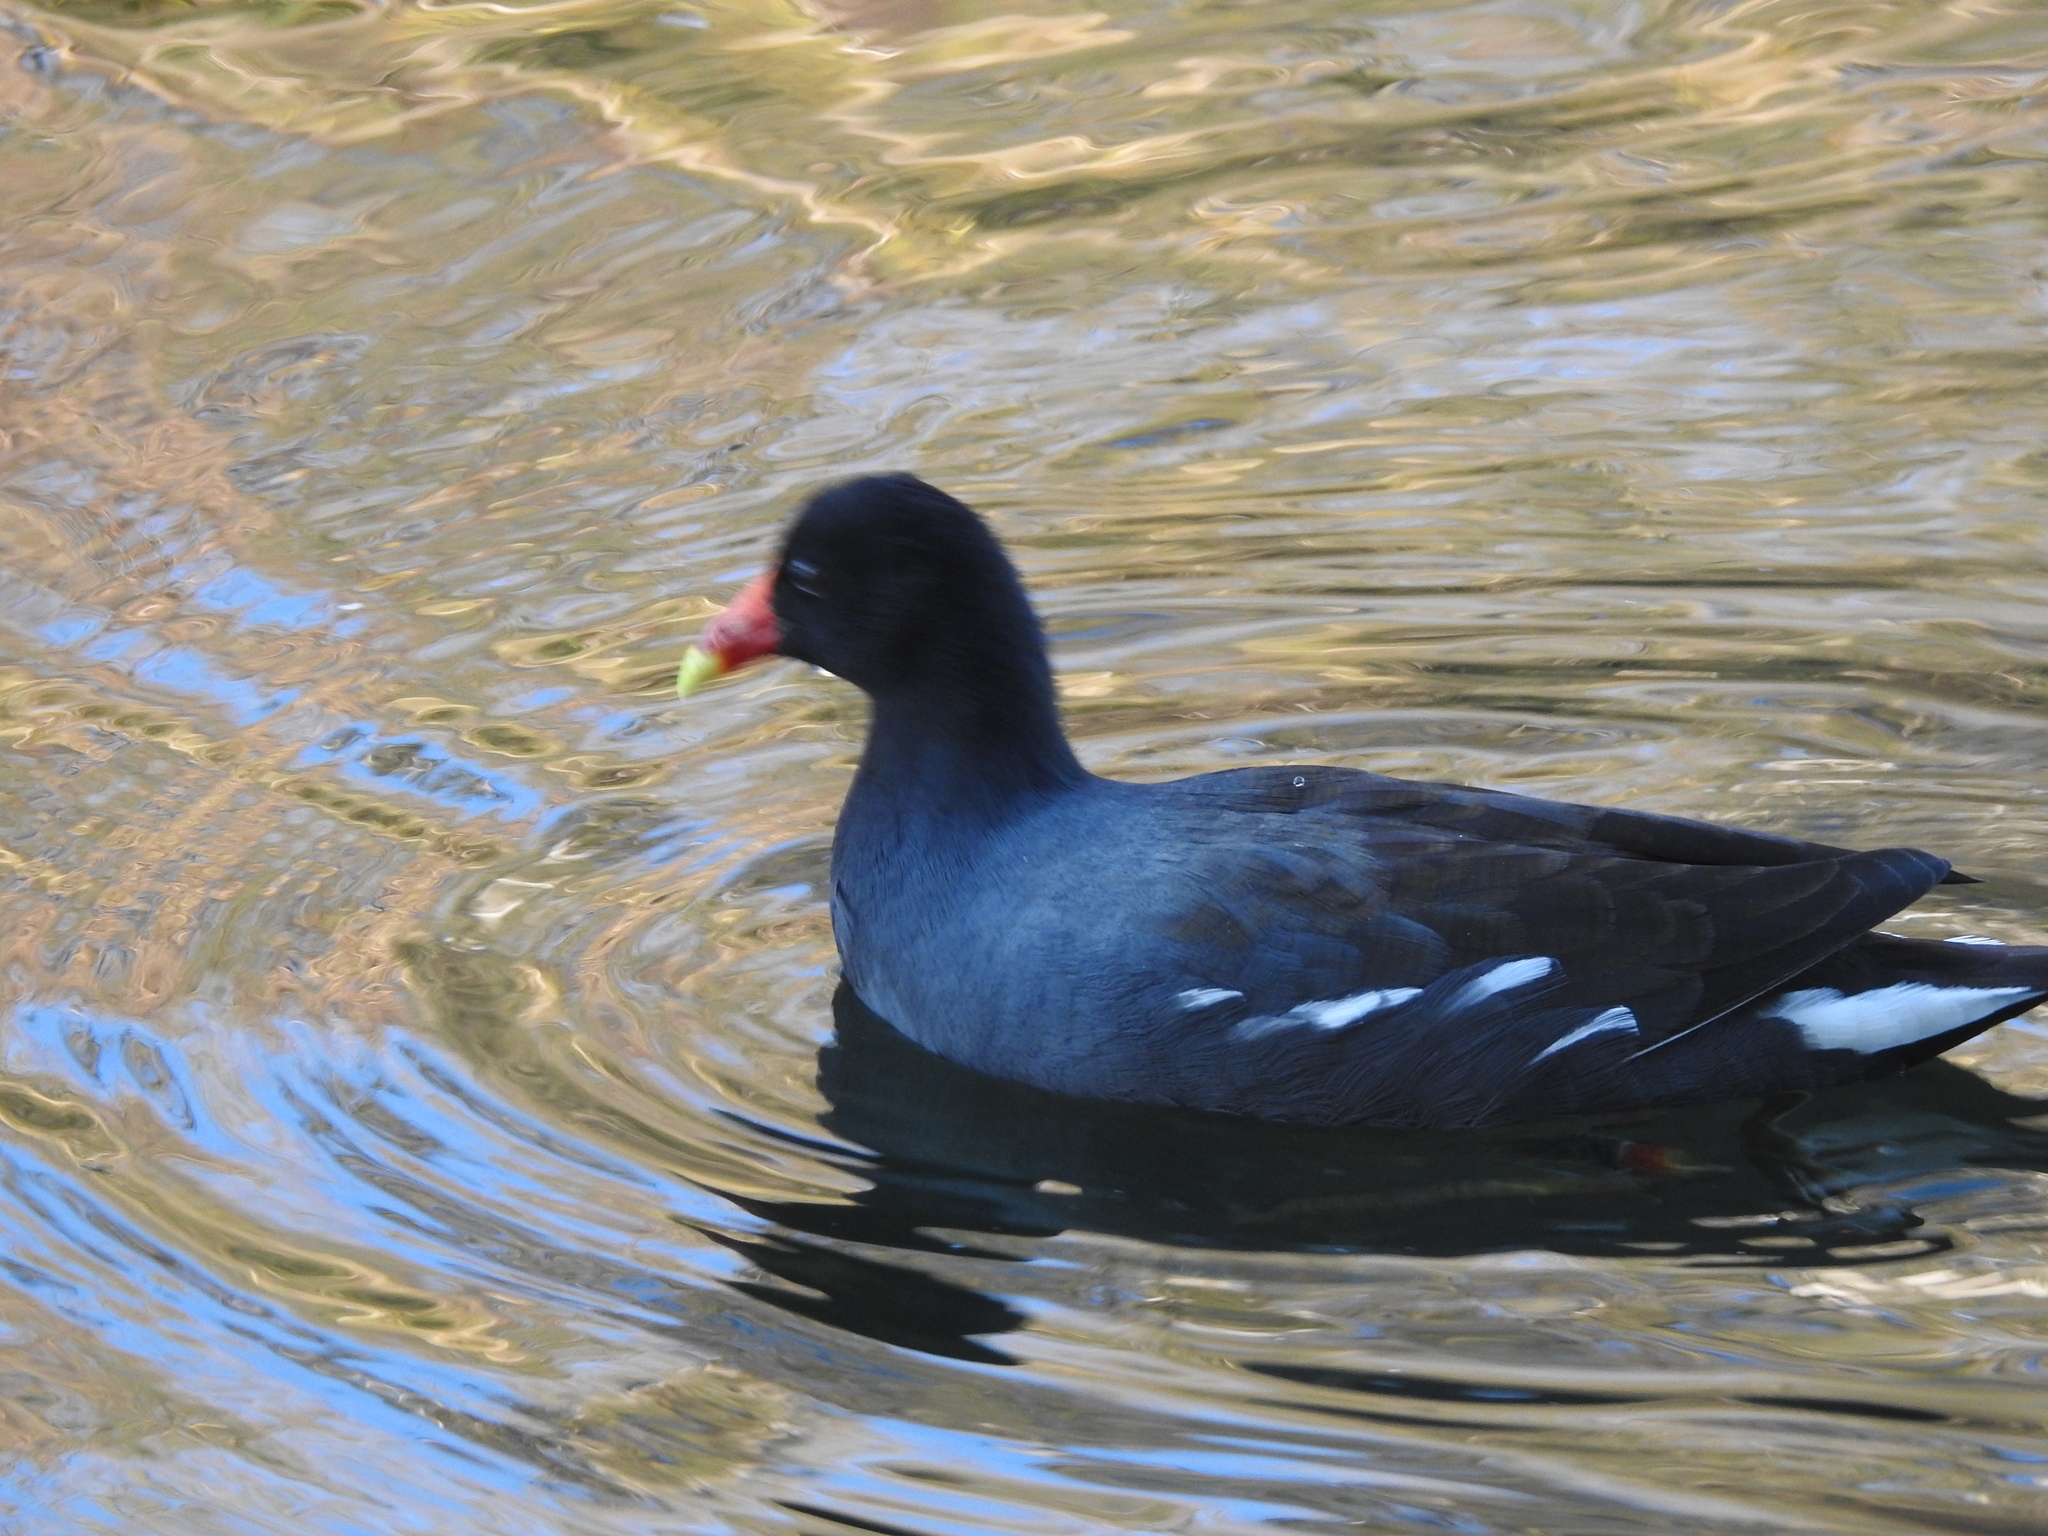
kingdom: Animalia
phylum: Chordata
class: Aves
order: Gruiformes
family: Rallidae
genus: Gallinula
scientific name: Gallinula chloropus
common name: Common moorhen
